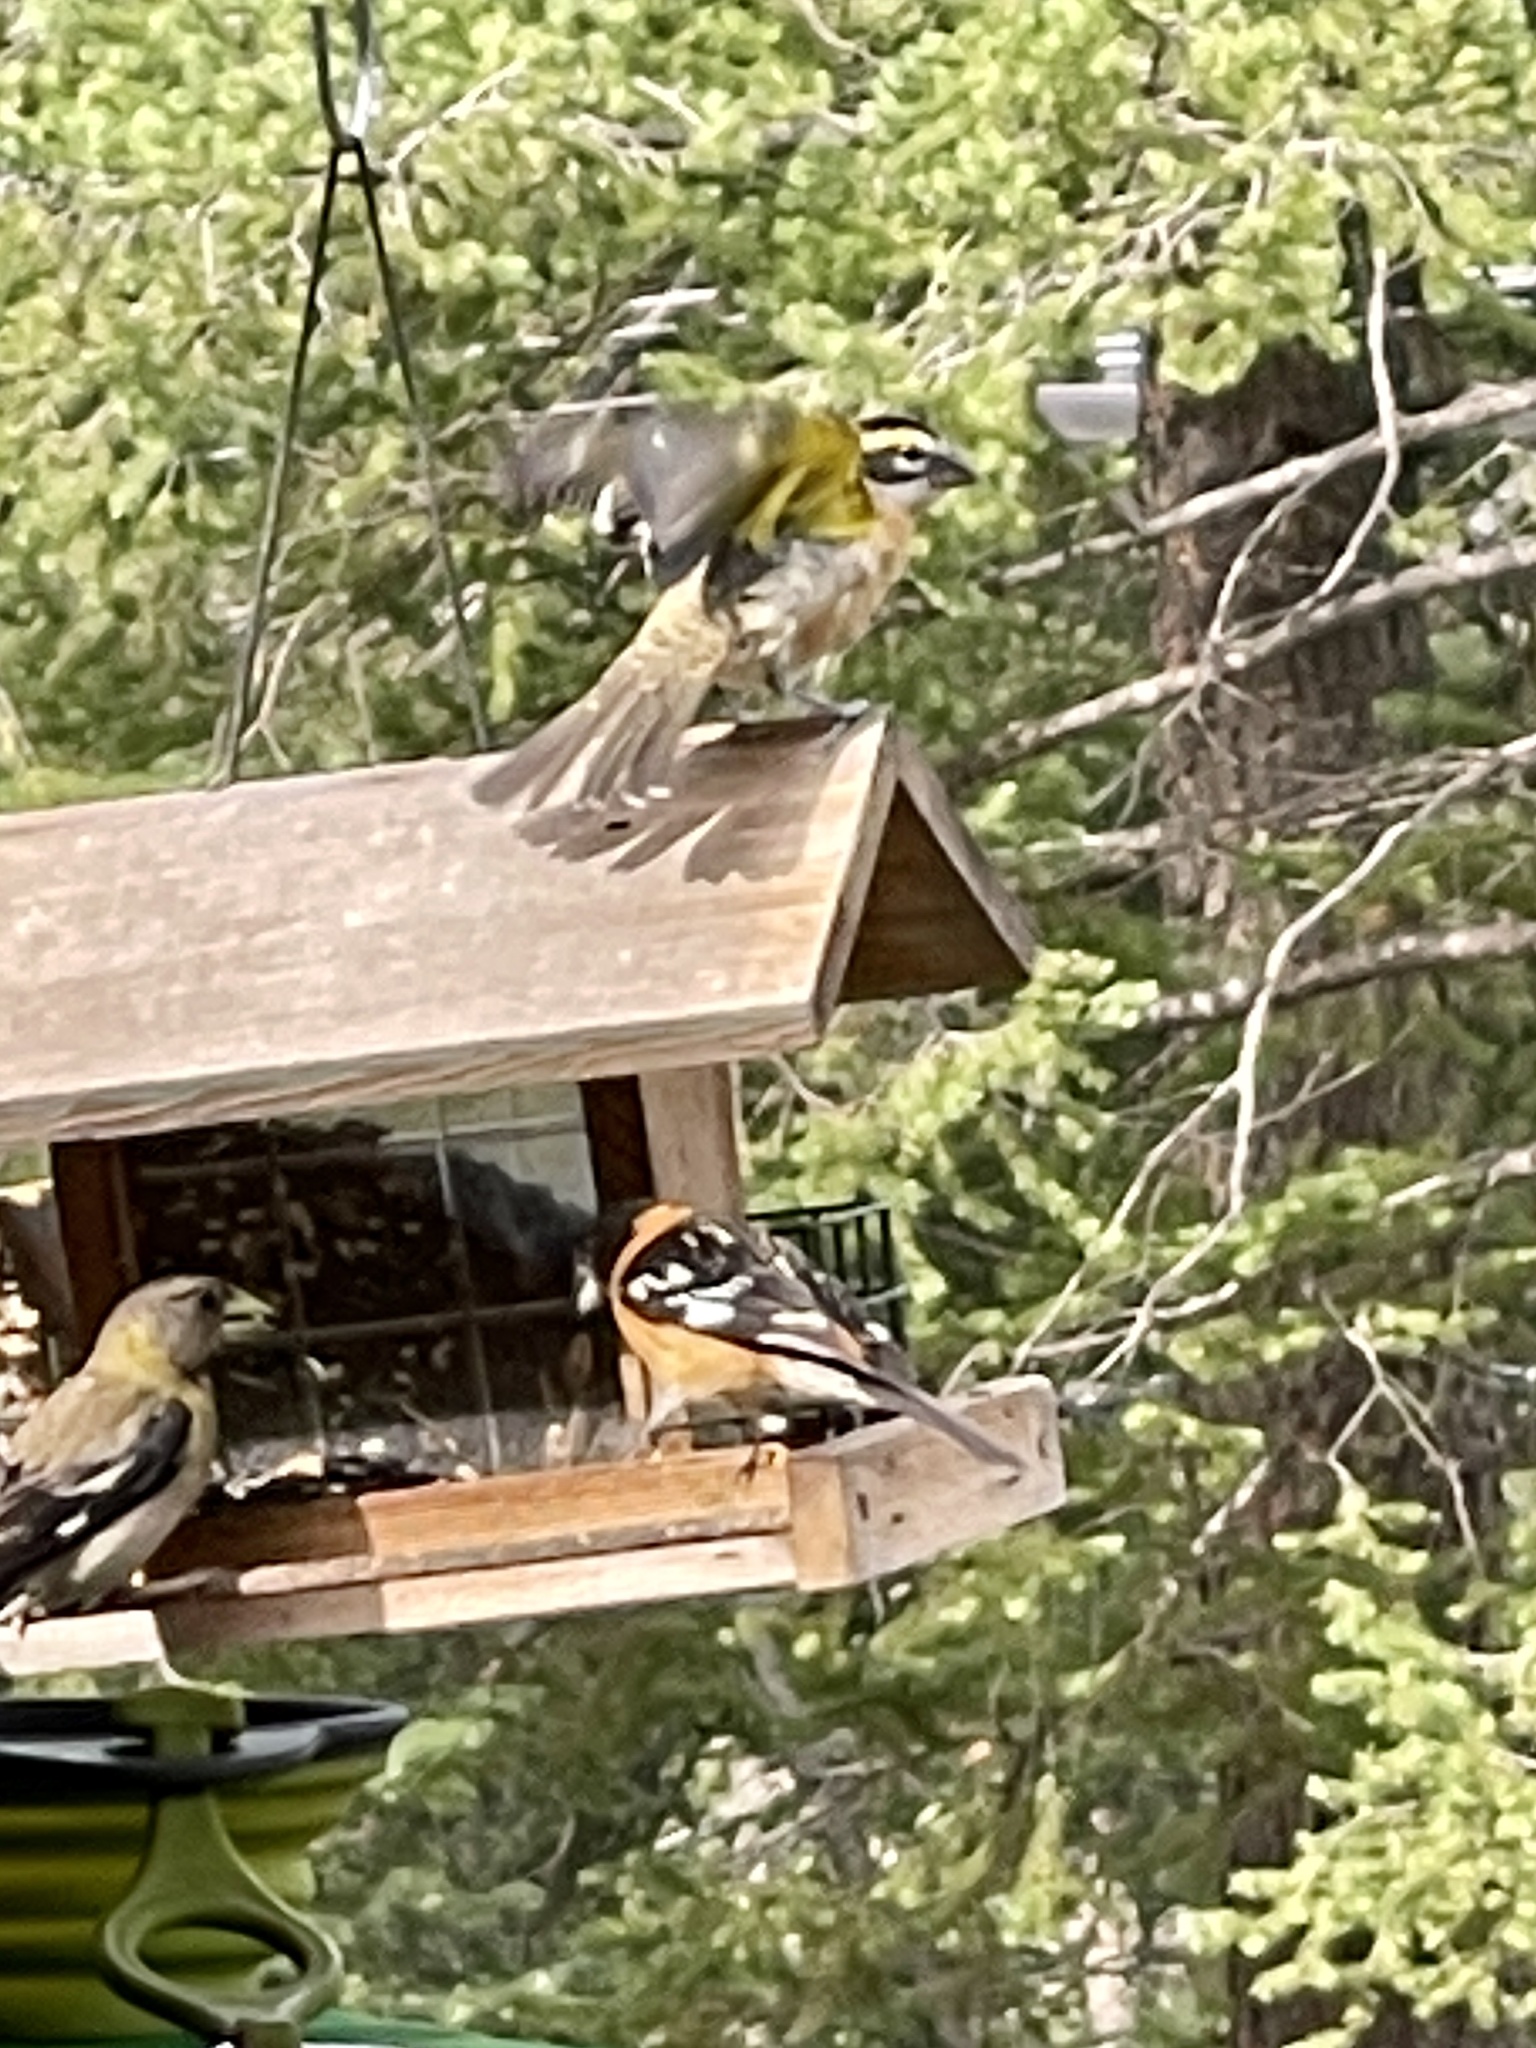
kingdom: Animalia
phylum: Chordata
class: Aves
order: Passeriformes
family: Cardinalidae
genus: Pheucticus
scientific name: Pheucticus melanocephalus
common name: Black-headed grosbeak
